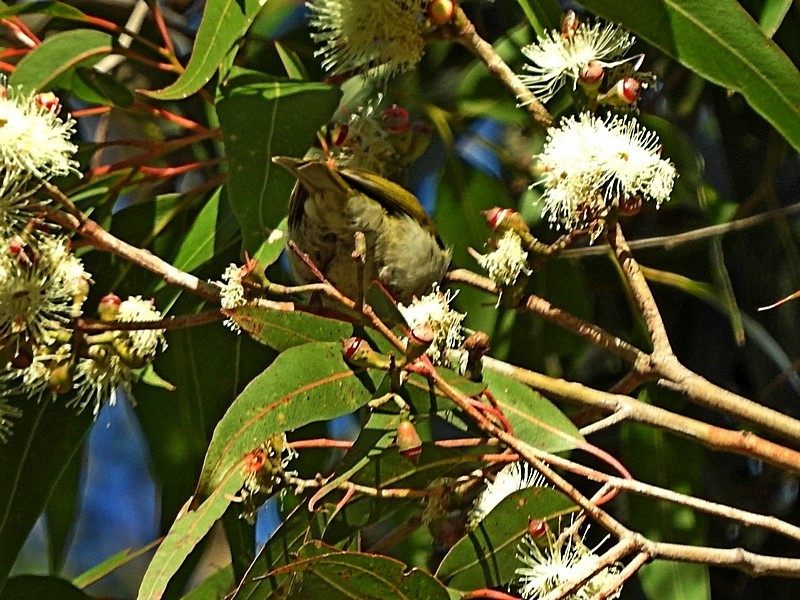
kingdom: Animalia
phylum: Chordata
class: Aves
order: Passeriformes
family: Meliphagidae
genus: Melithreptus
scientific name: Melithreptus lunatus
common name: White-naped honeyeater
